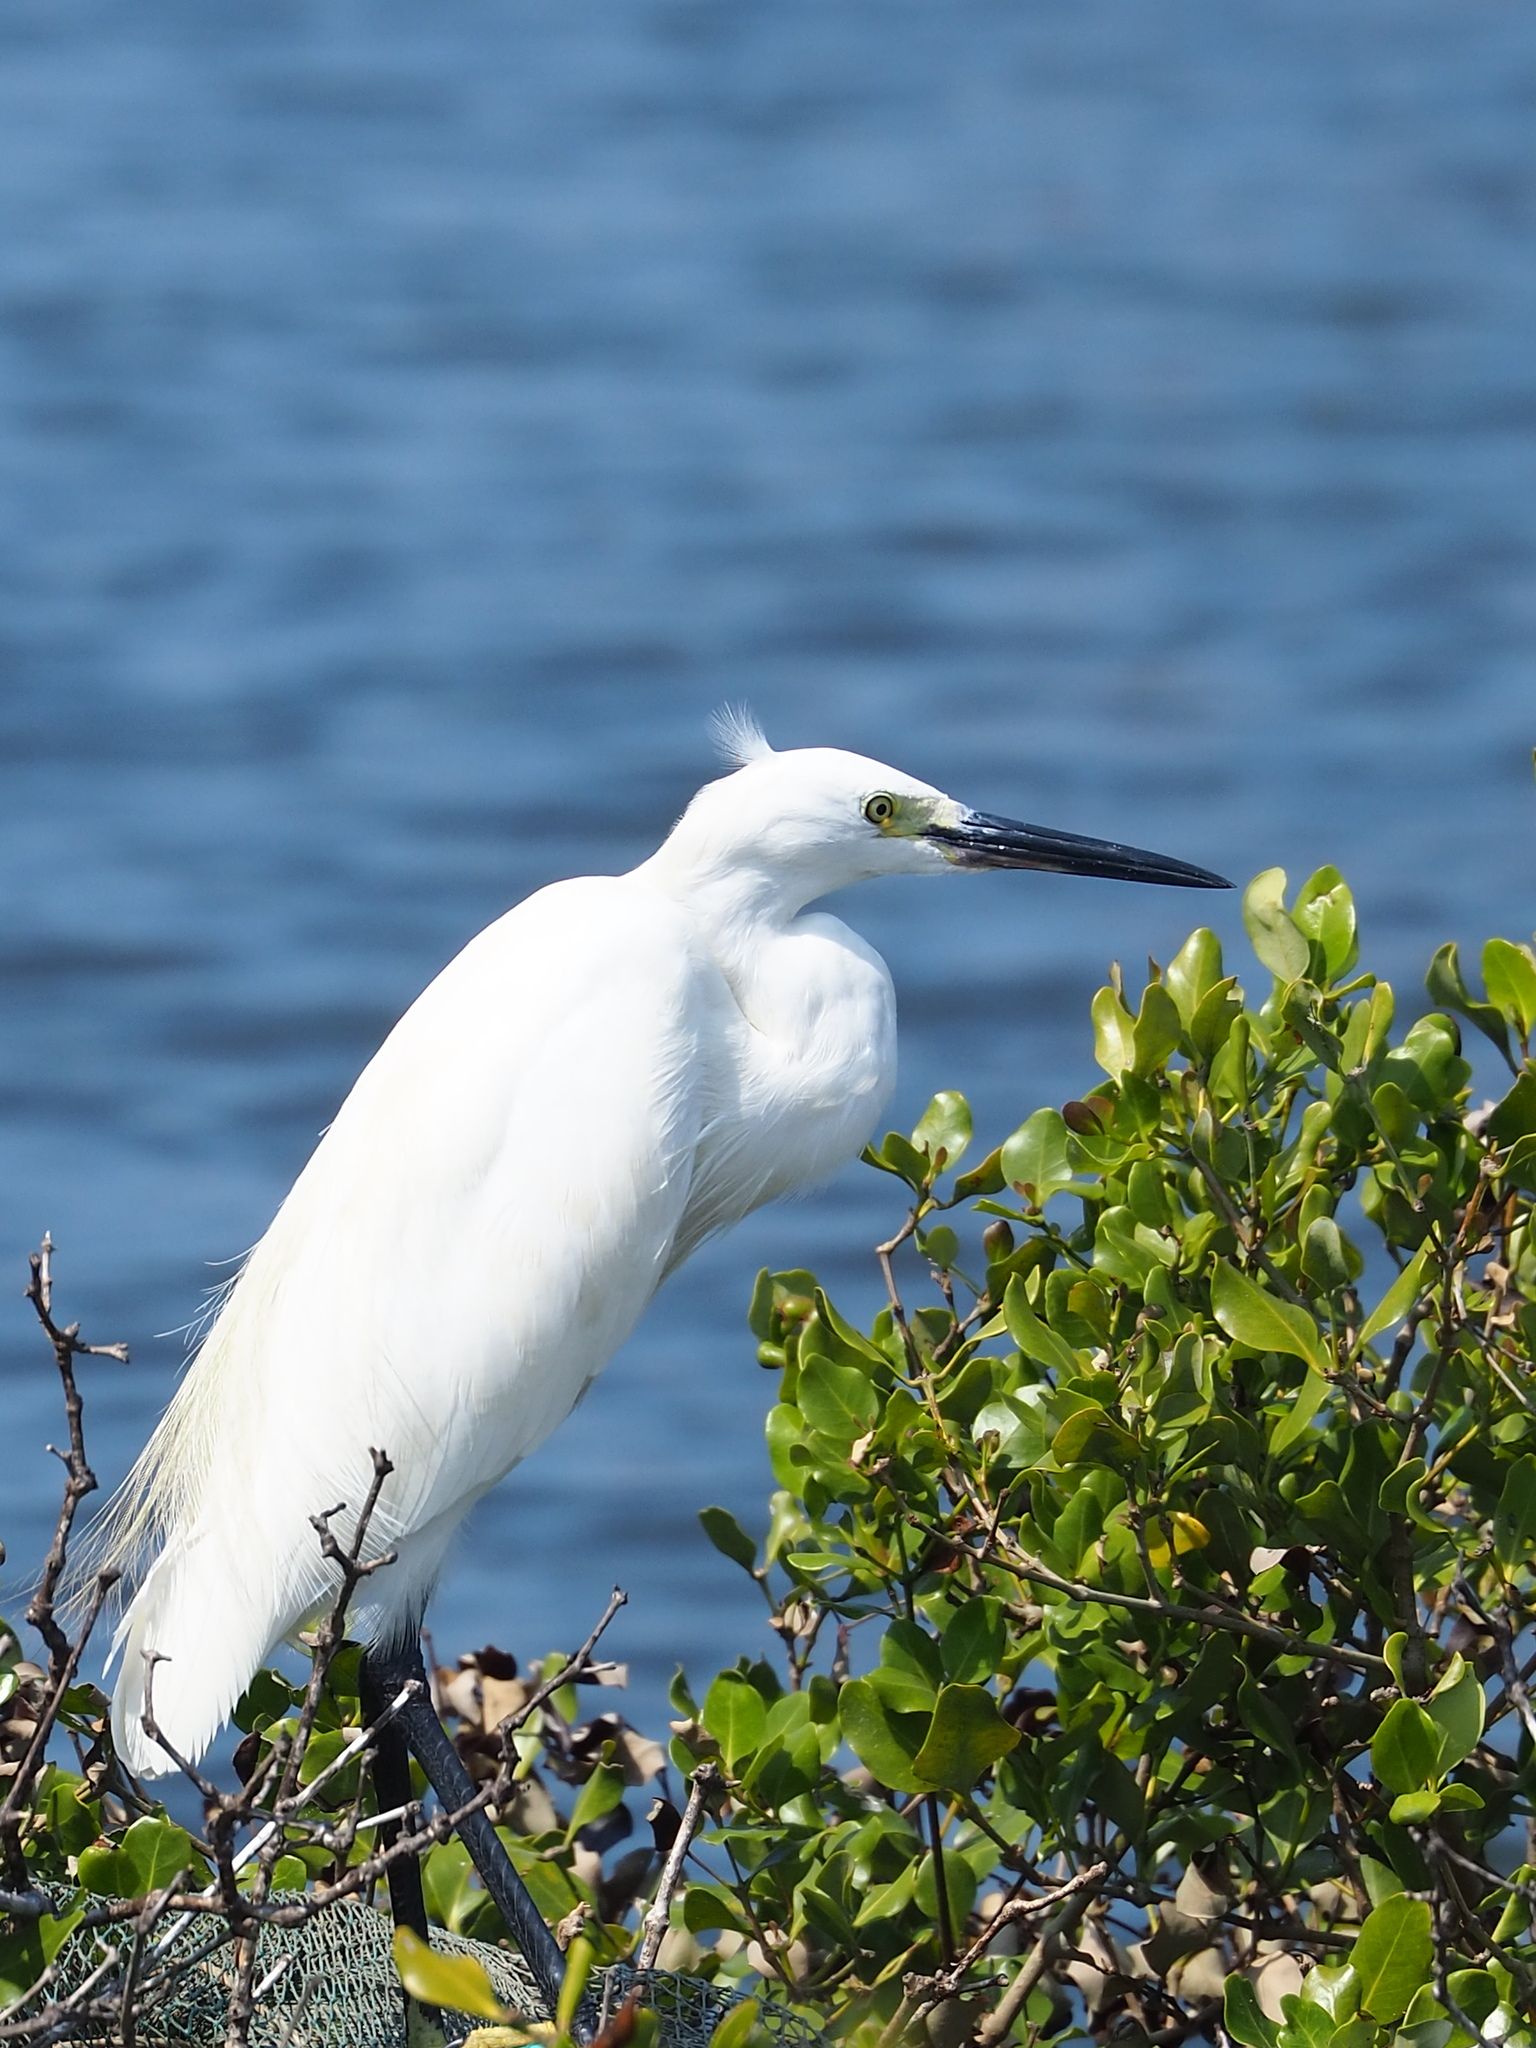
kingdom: Animalia
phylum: Chordata
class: Aves
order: Pelecaniformes
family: Ardeidae
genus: Egretta
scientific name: Egretta garzetta
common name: Little egret
